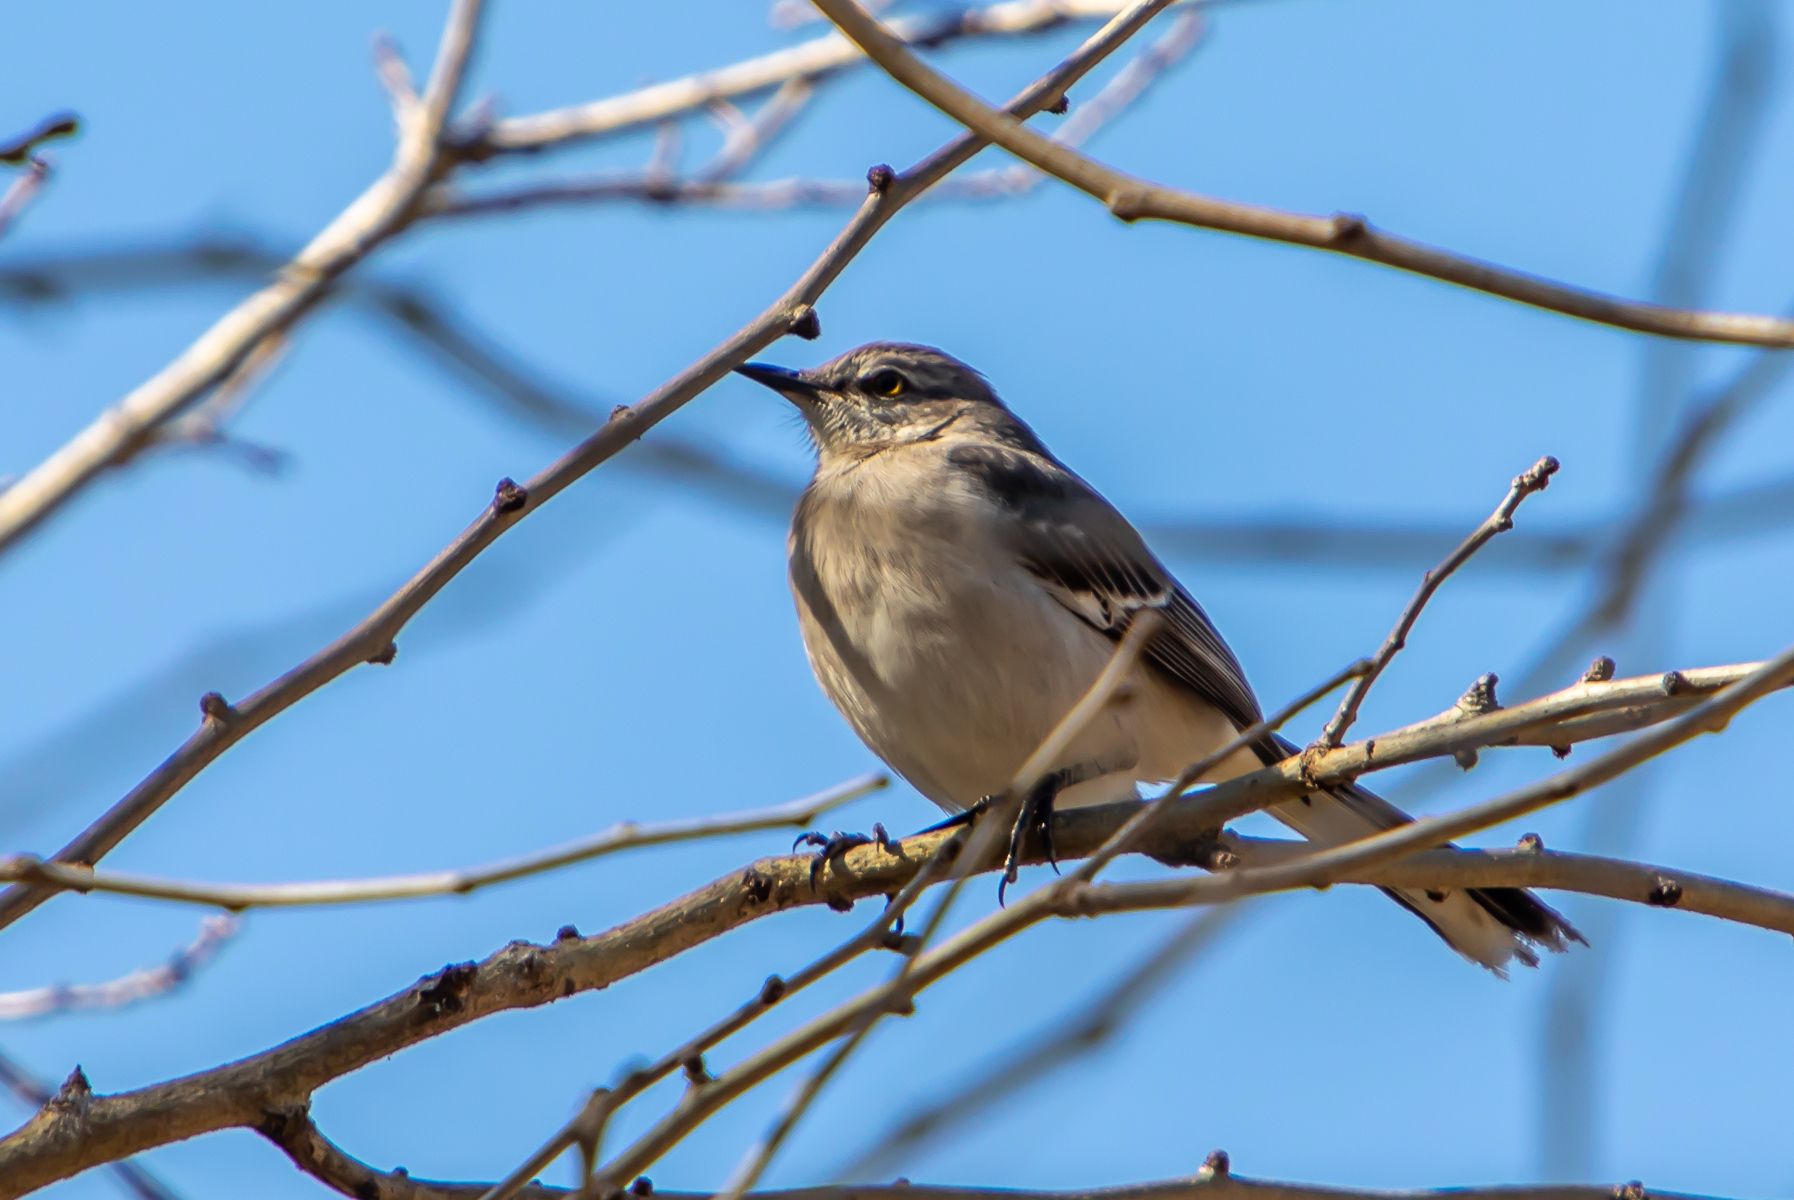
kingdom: Animalia
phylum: Chordata
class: Aves
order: Passeriformes
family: Mimidae
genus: Mimus
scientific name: Mimus polyglottos
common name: Northern mockingbird
